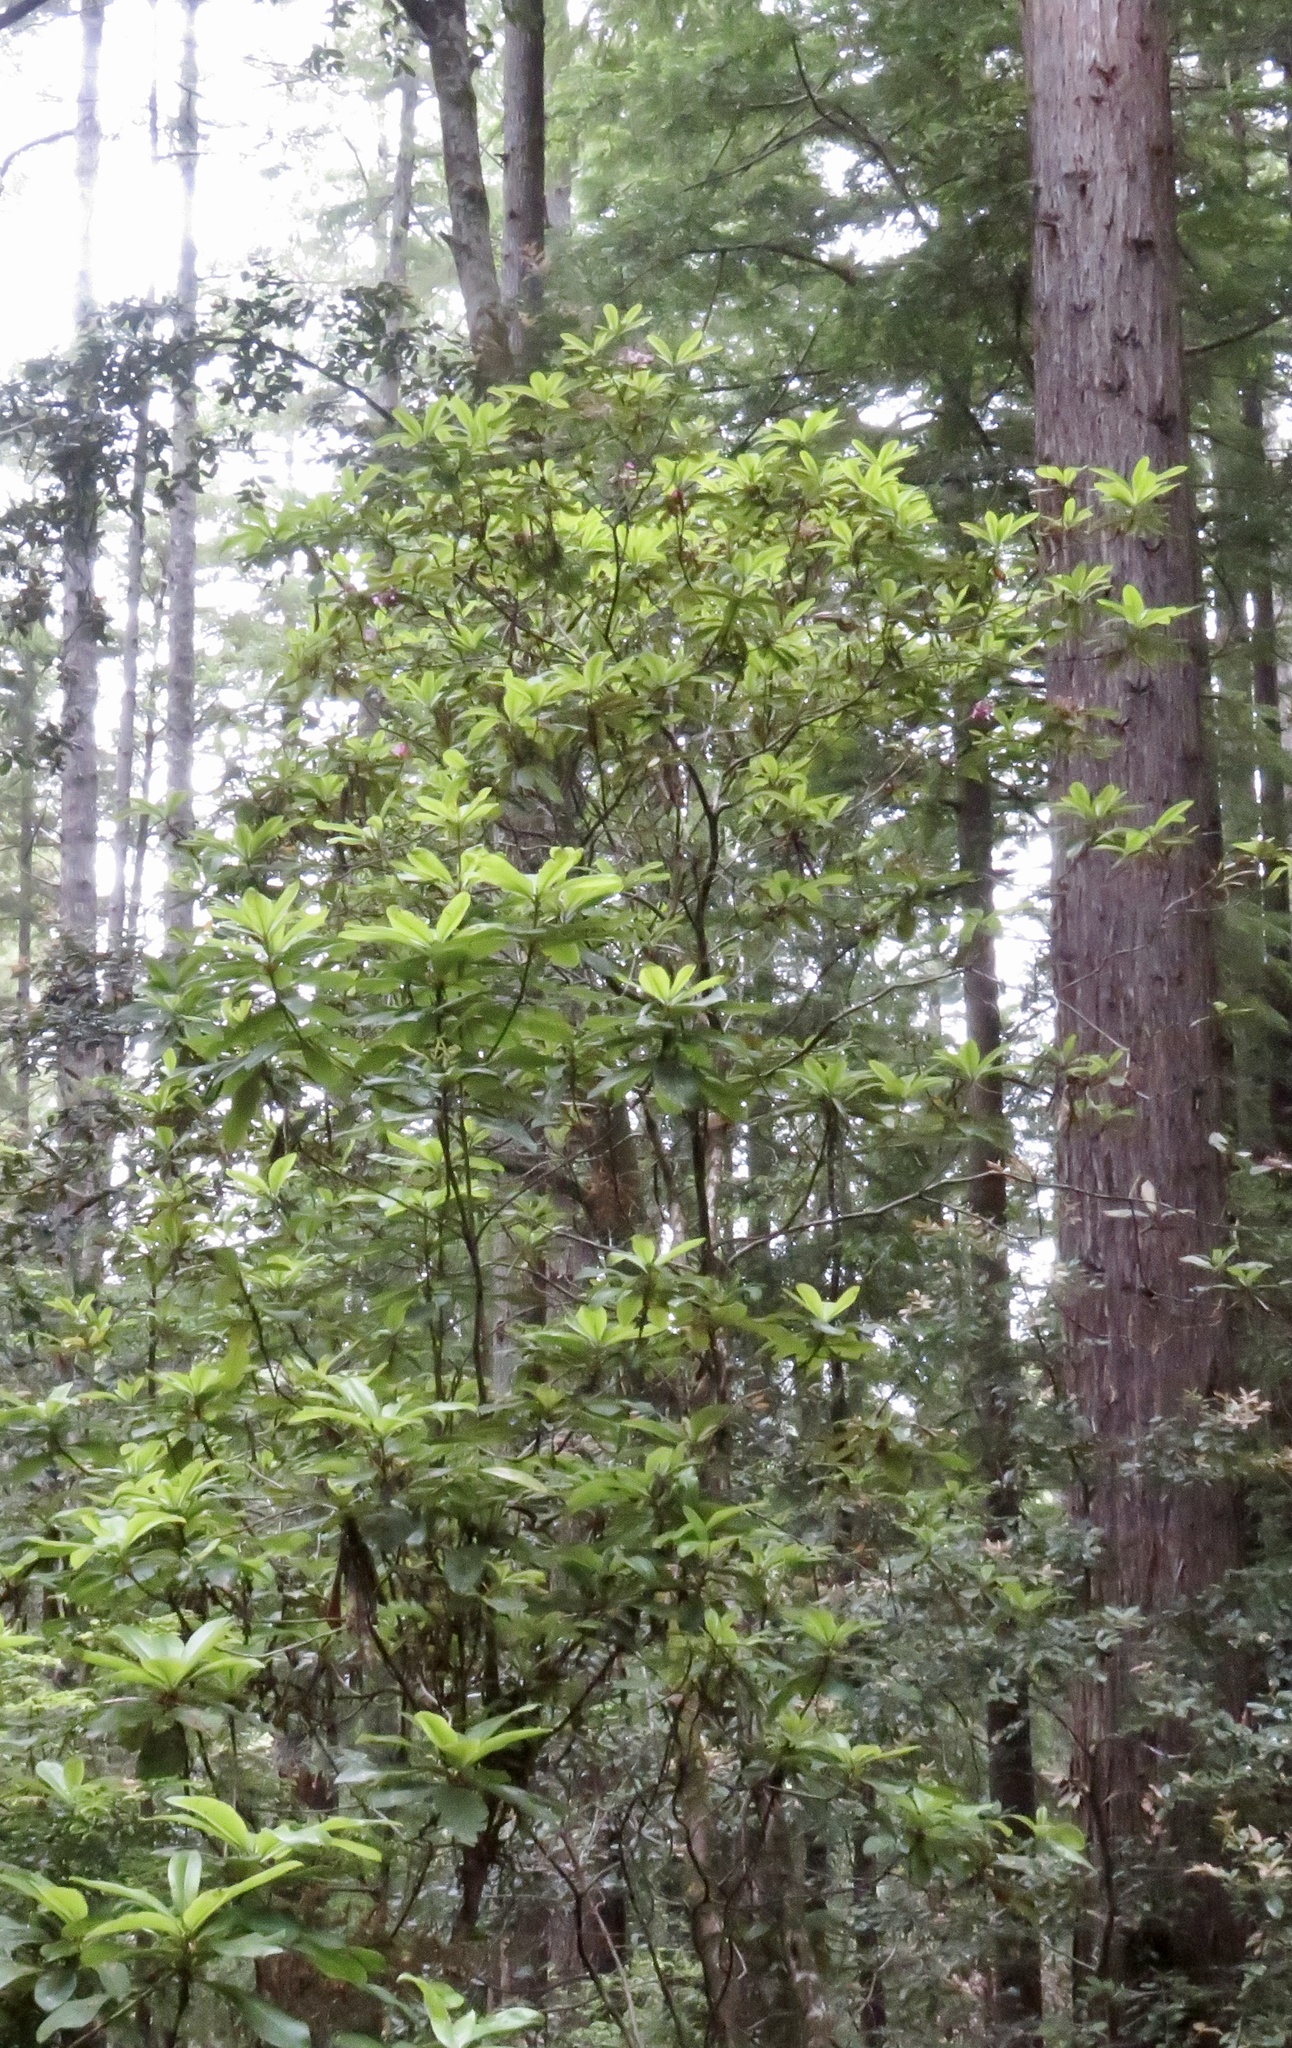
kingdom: Plantae
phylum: Tracheophyta
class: Magnoliopsida
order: Ericales
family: Ericaceae
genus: Rhododendron
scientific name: Rhododendron macrophyllum
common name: California rose bay
